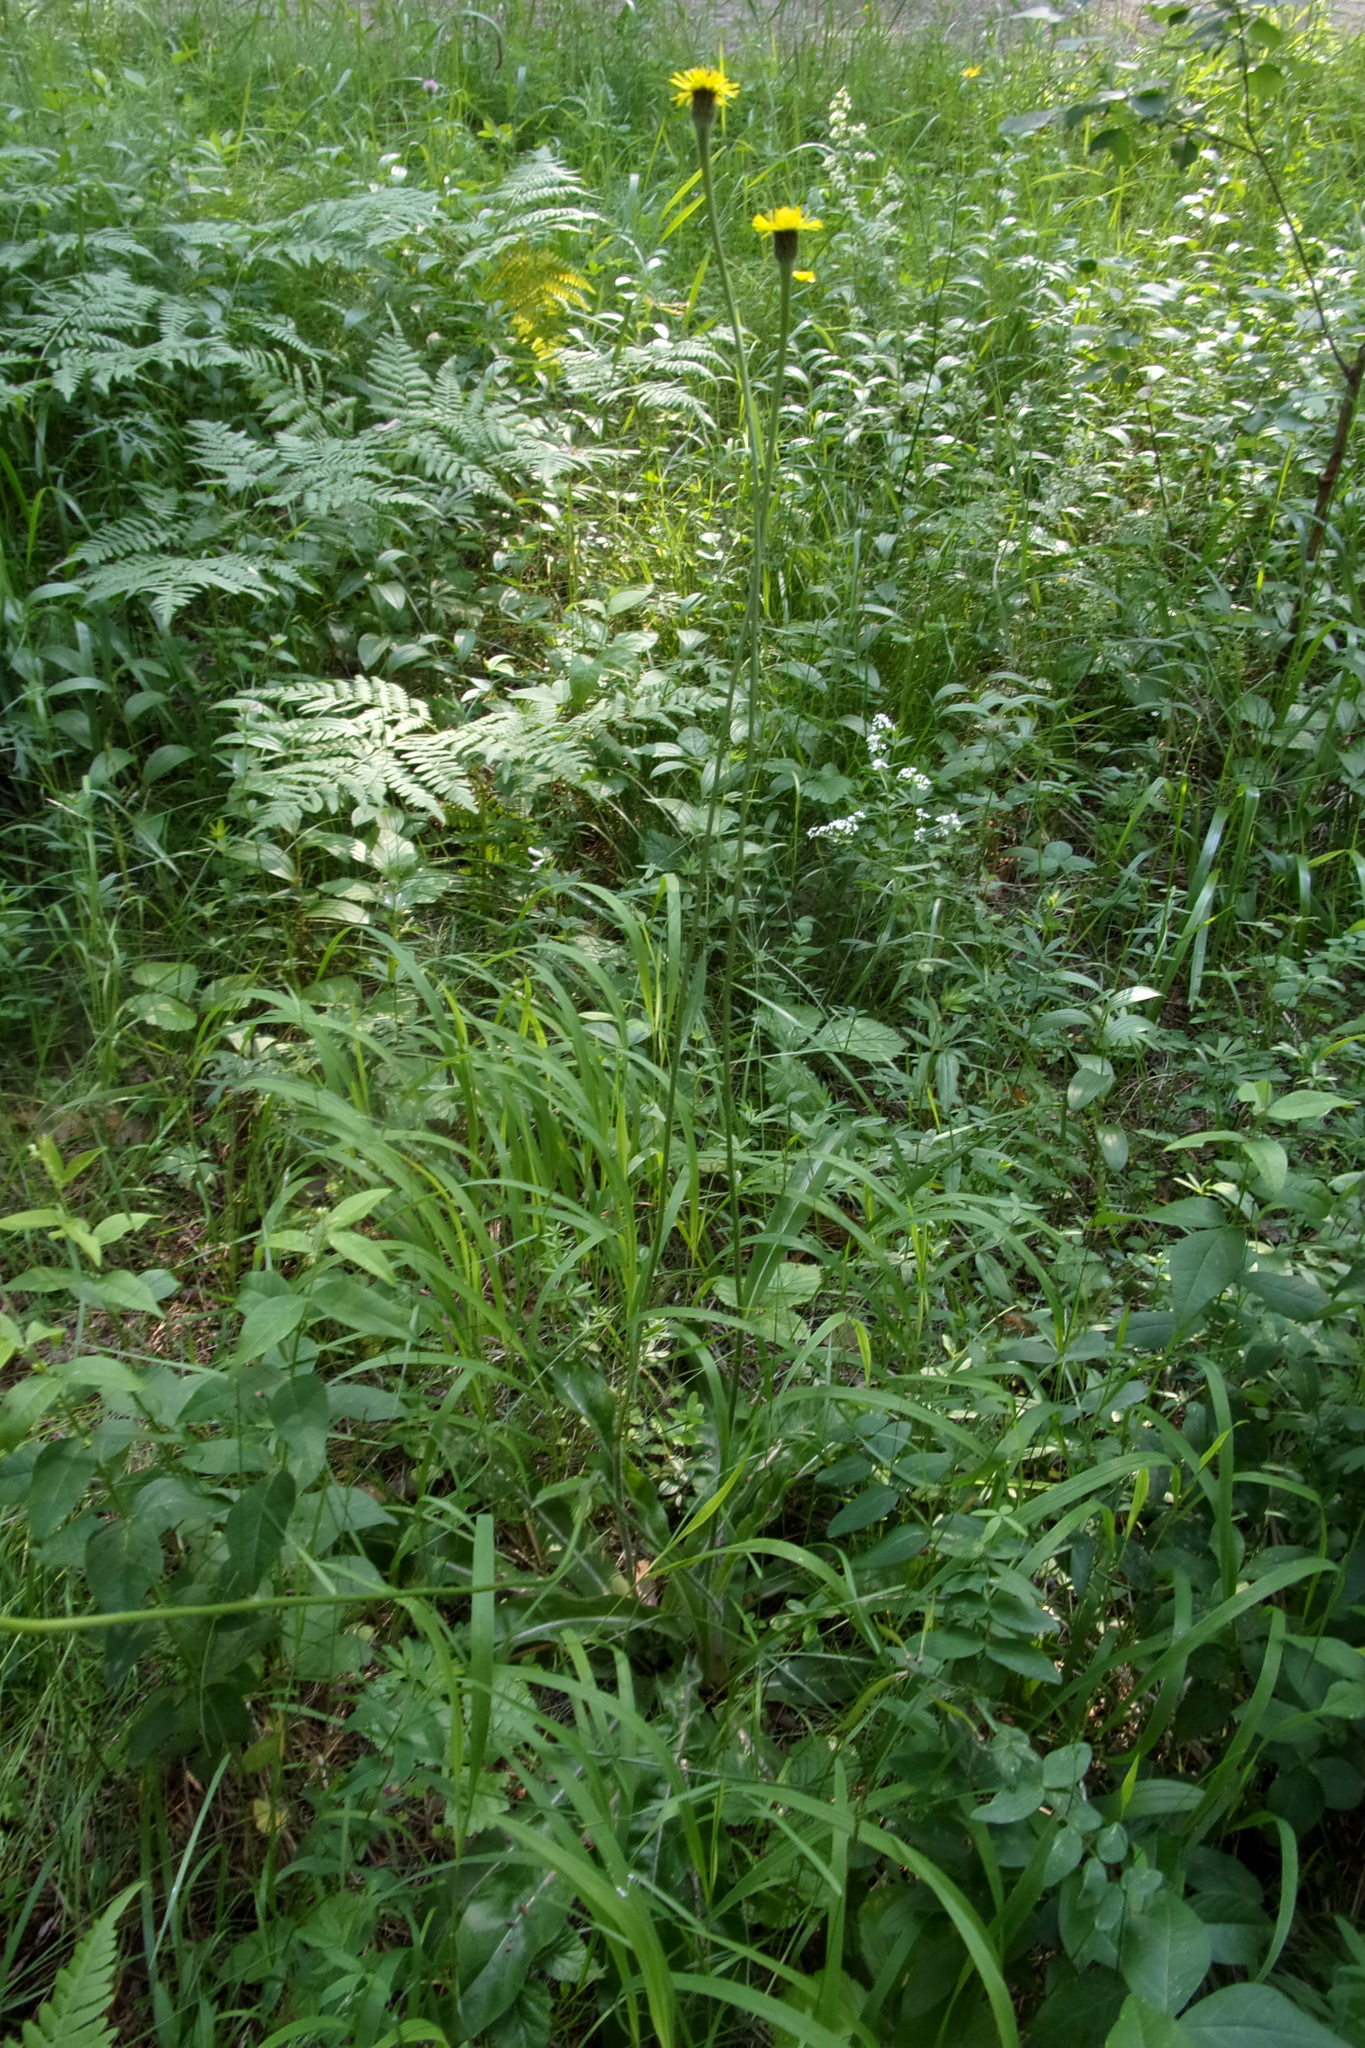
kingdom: Plantae
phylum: Tracheophyta
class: Magnoliopsida
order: Asterales
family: Asteraceae
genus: Trommsdorffia
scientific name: Trommsdorffia maculata
